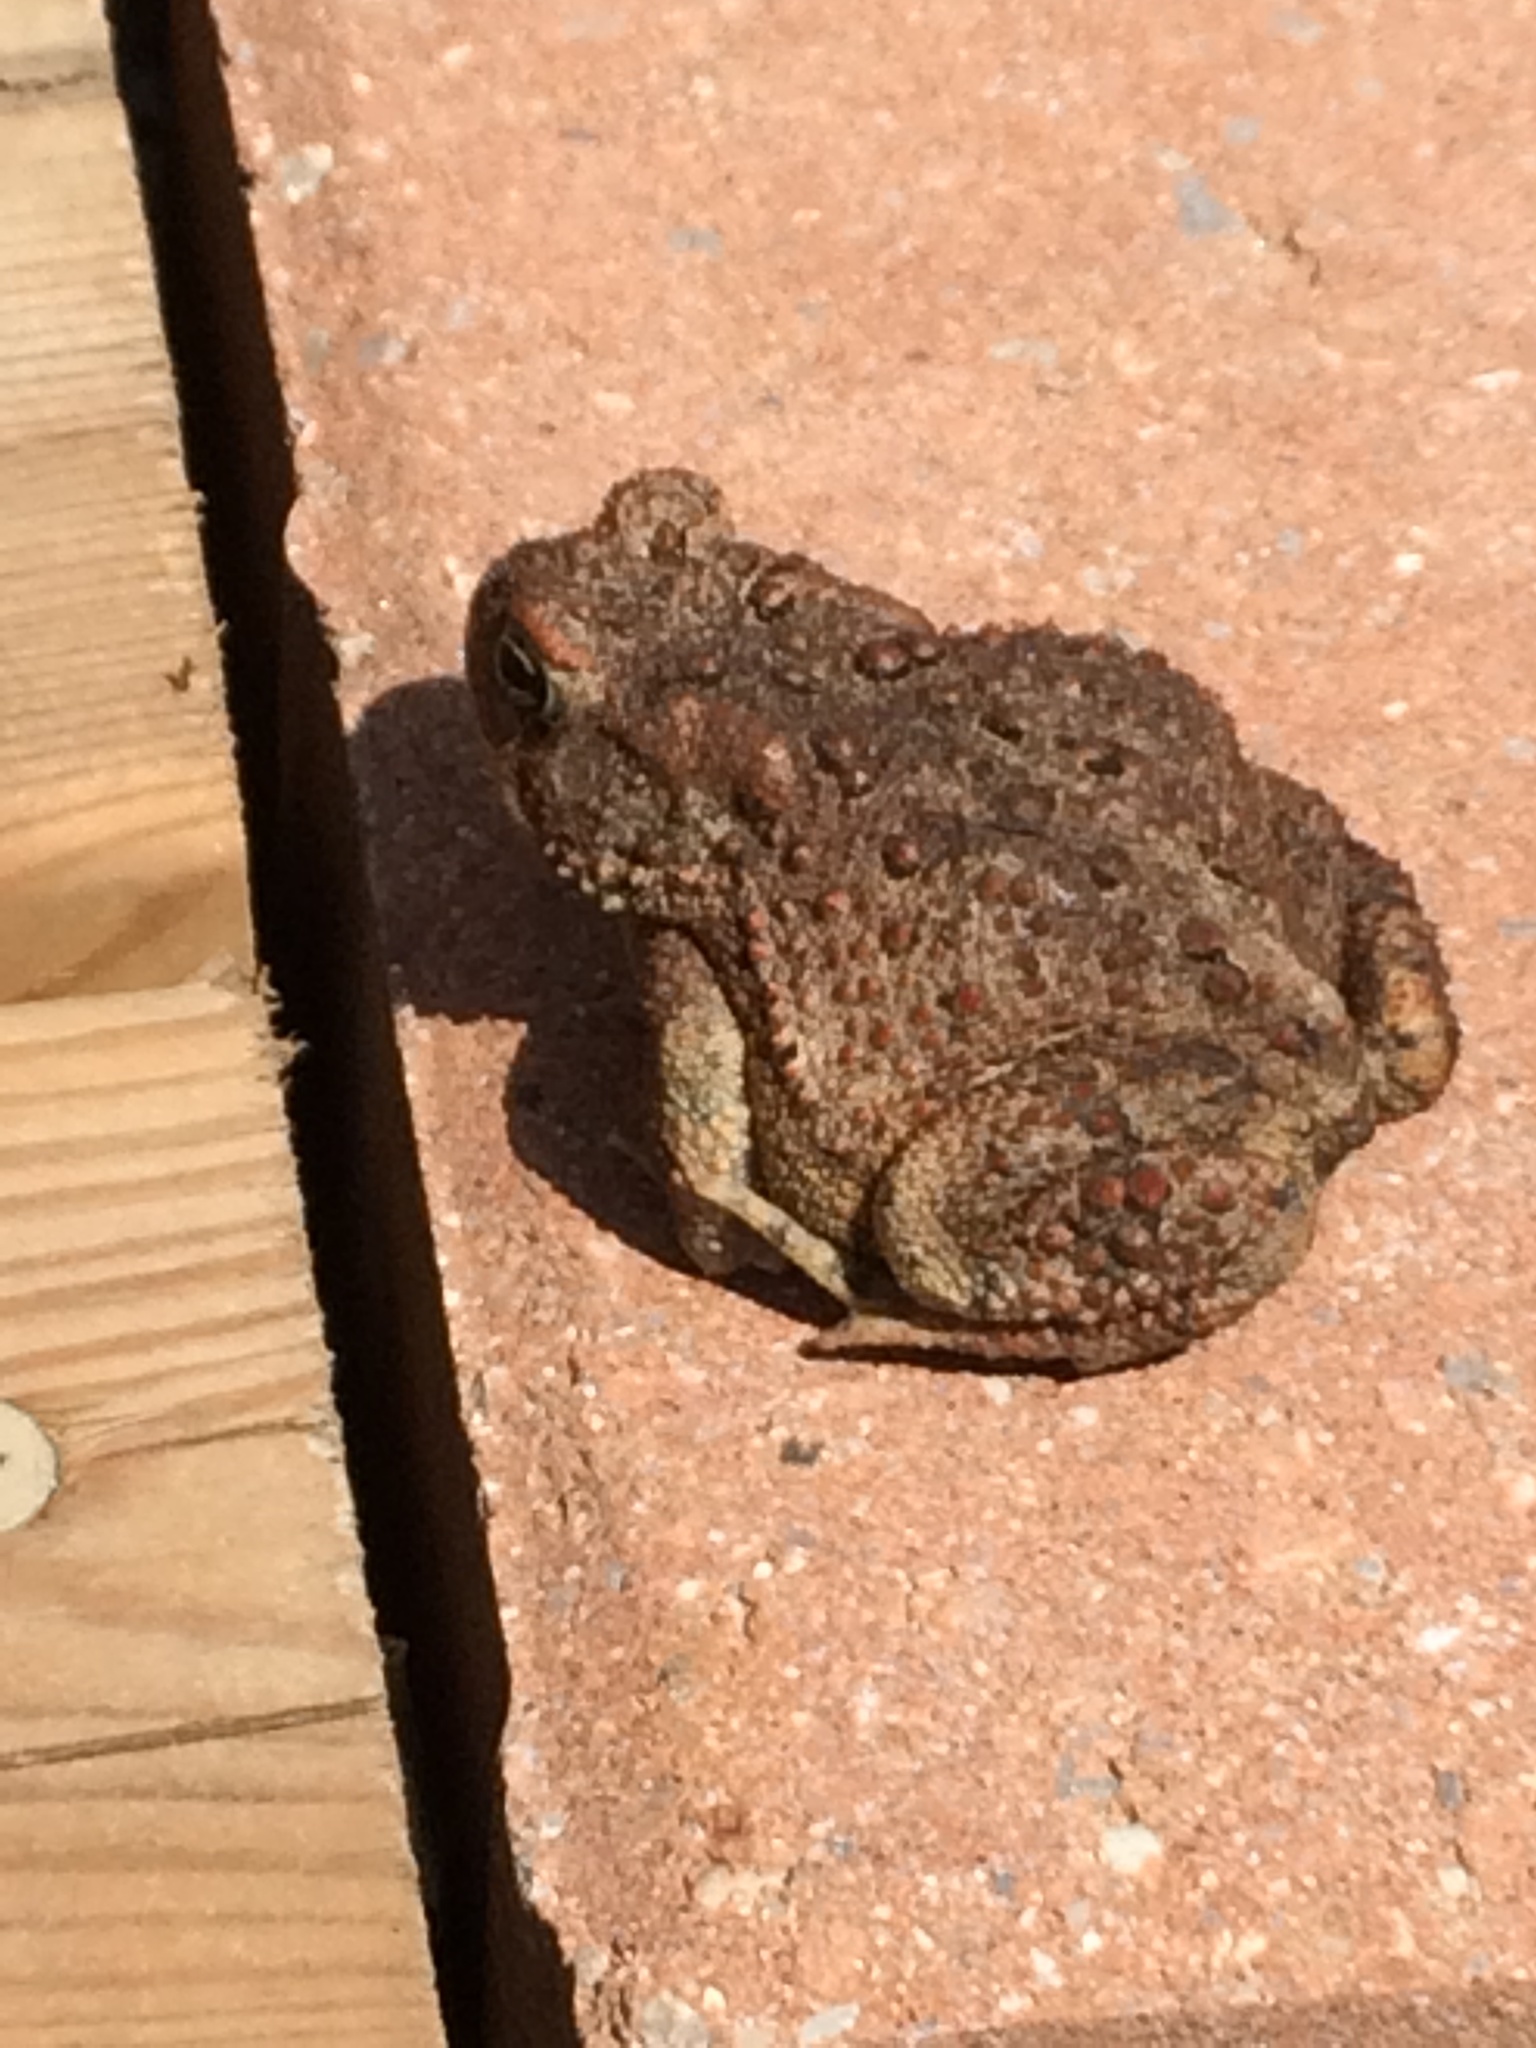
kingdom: Animalia
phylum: Chordata
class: Amphibia
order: Anura
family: Bufonidae
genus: Anaxyrus
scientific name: Anaxyrus americanus
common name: American toad
